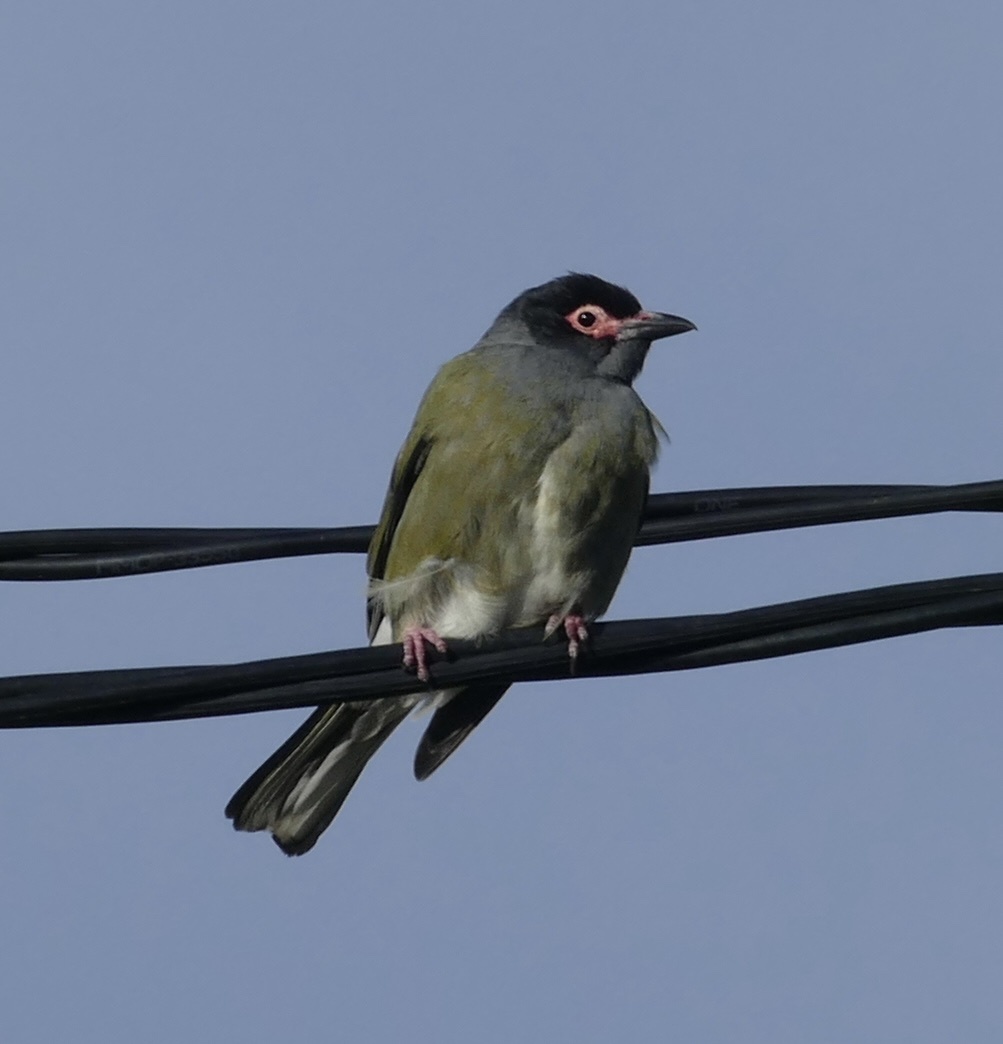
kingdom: Animalia
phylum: Chordata
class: Aves
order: Passeriformes
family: Oriolidae
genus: Sphecotheres
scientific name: Sphecotheres vieilloti
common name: Australasian figbird
